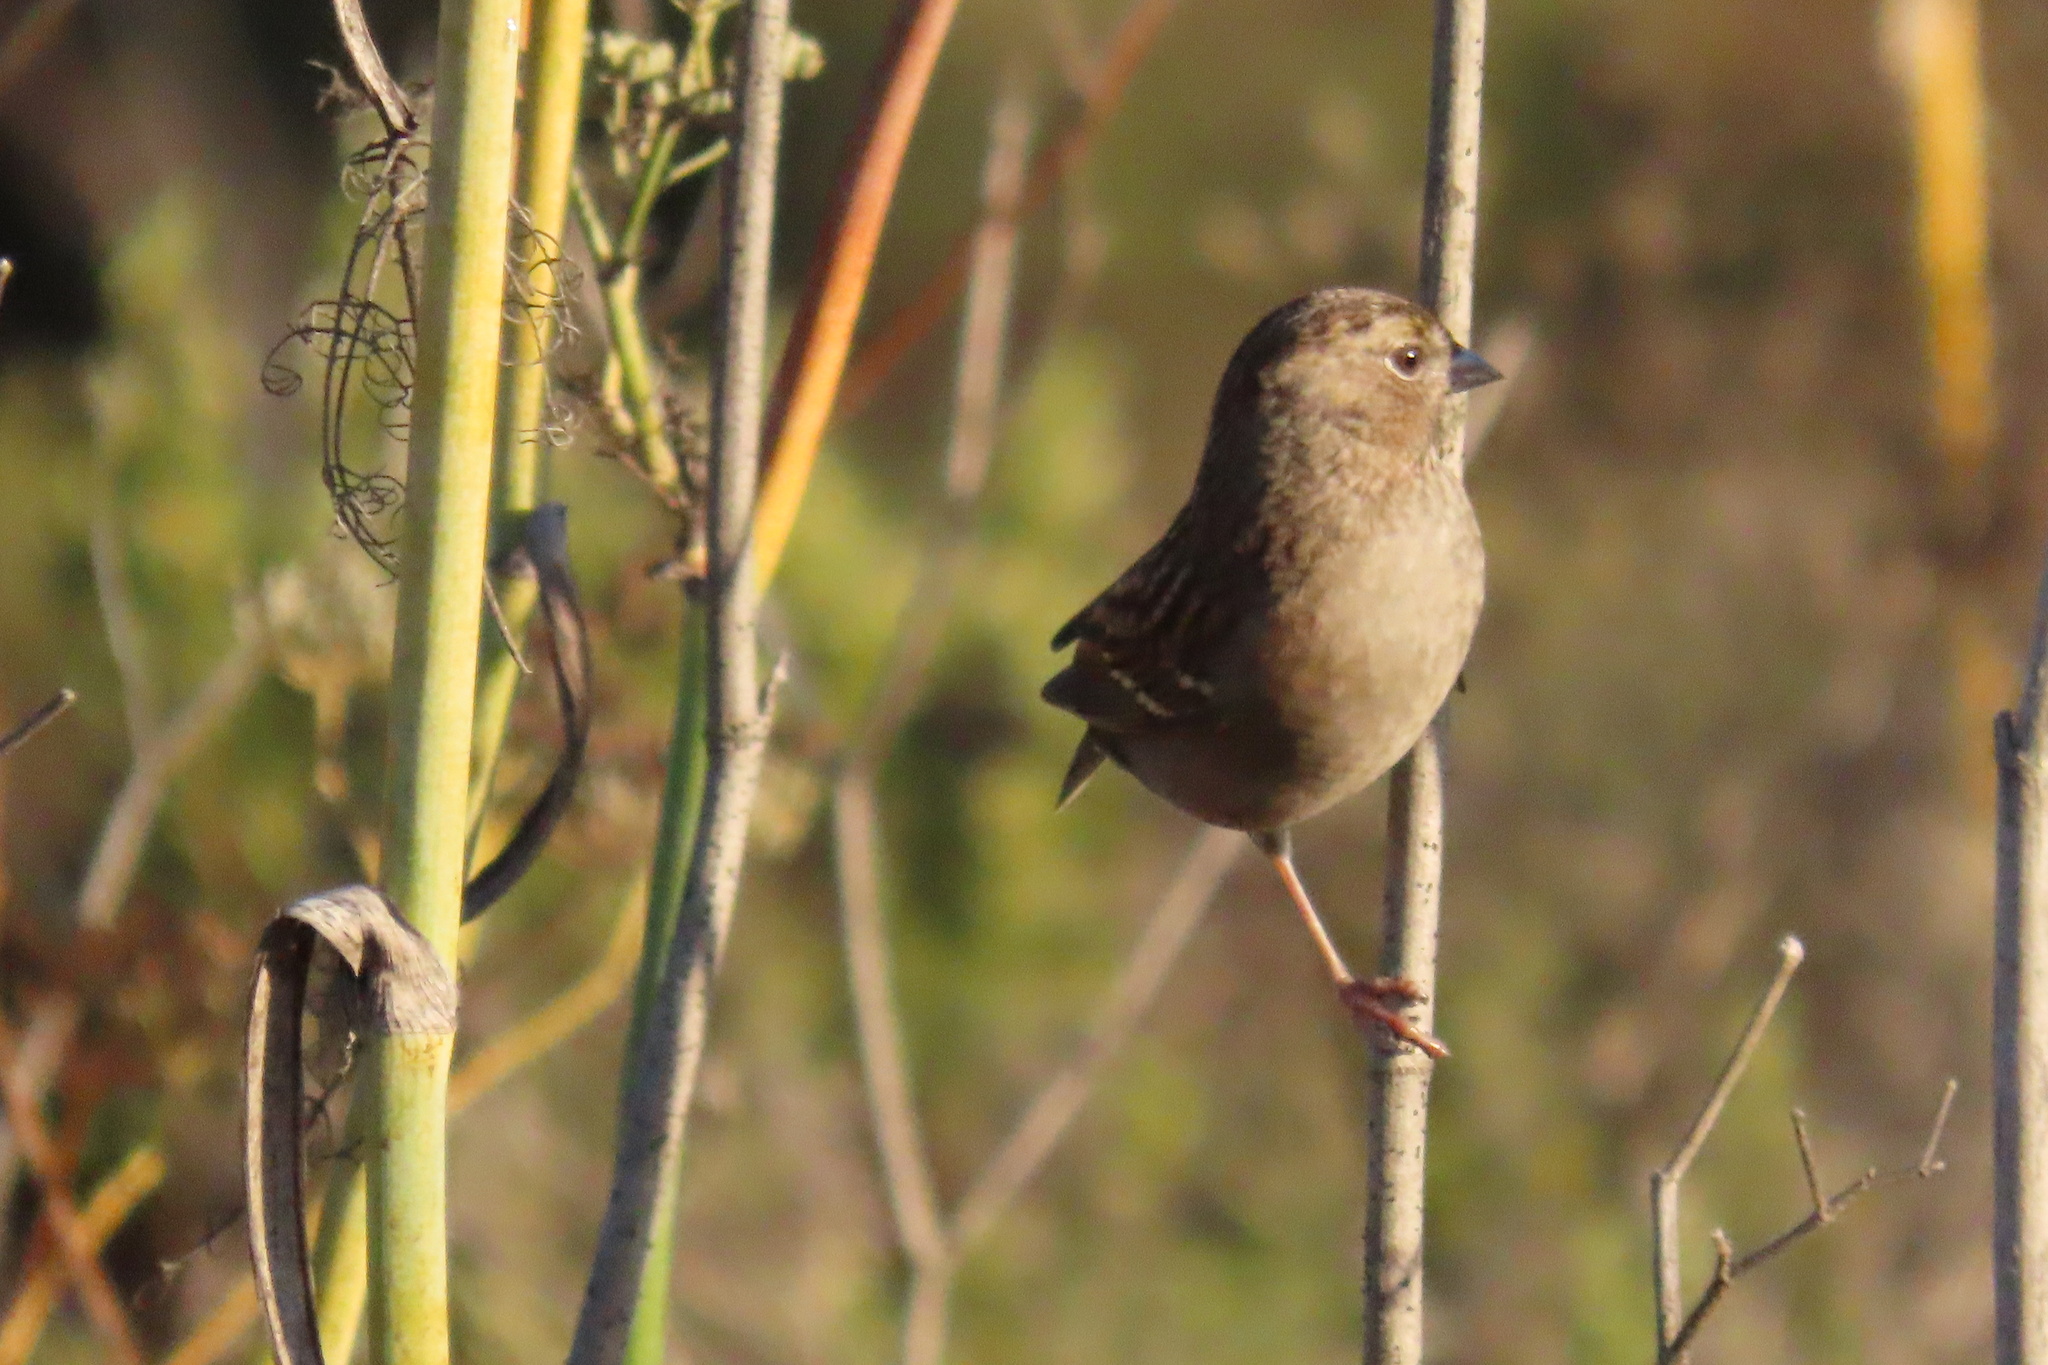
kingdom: Animalia
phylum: Chordata
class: Aves
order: Passeriformes
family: Passerellidae
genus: Zonotrichia
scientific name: Zonotrichia atricapilla
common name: Golden-crowned sparrow
